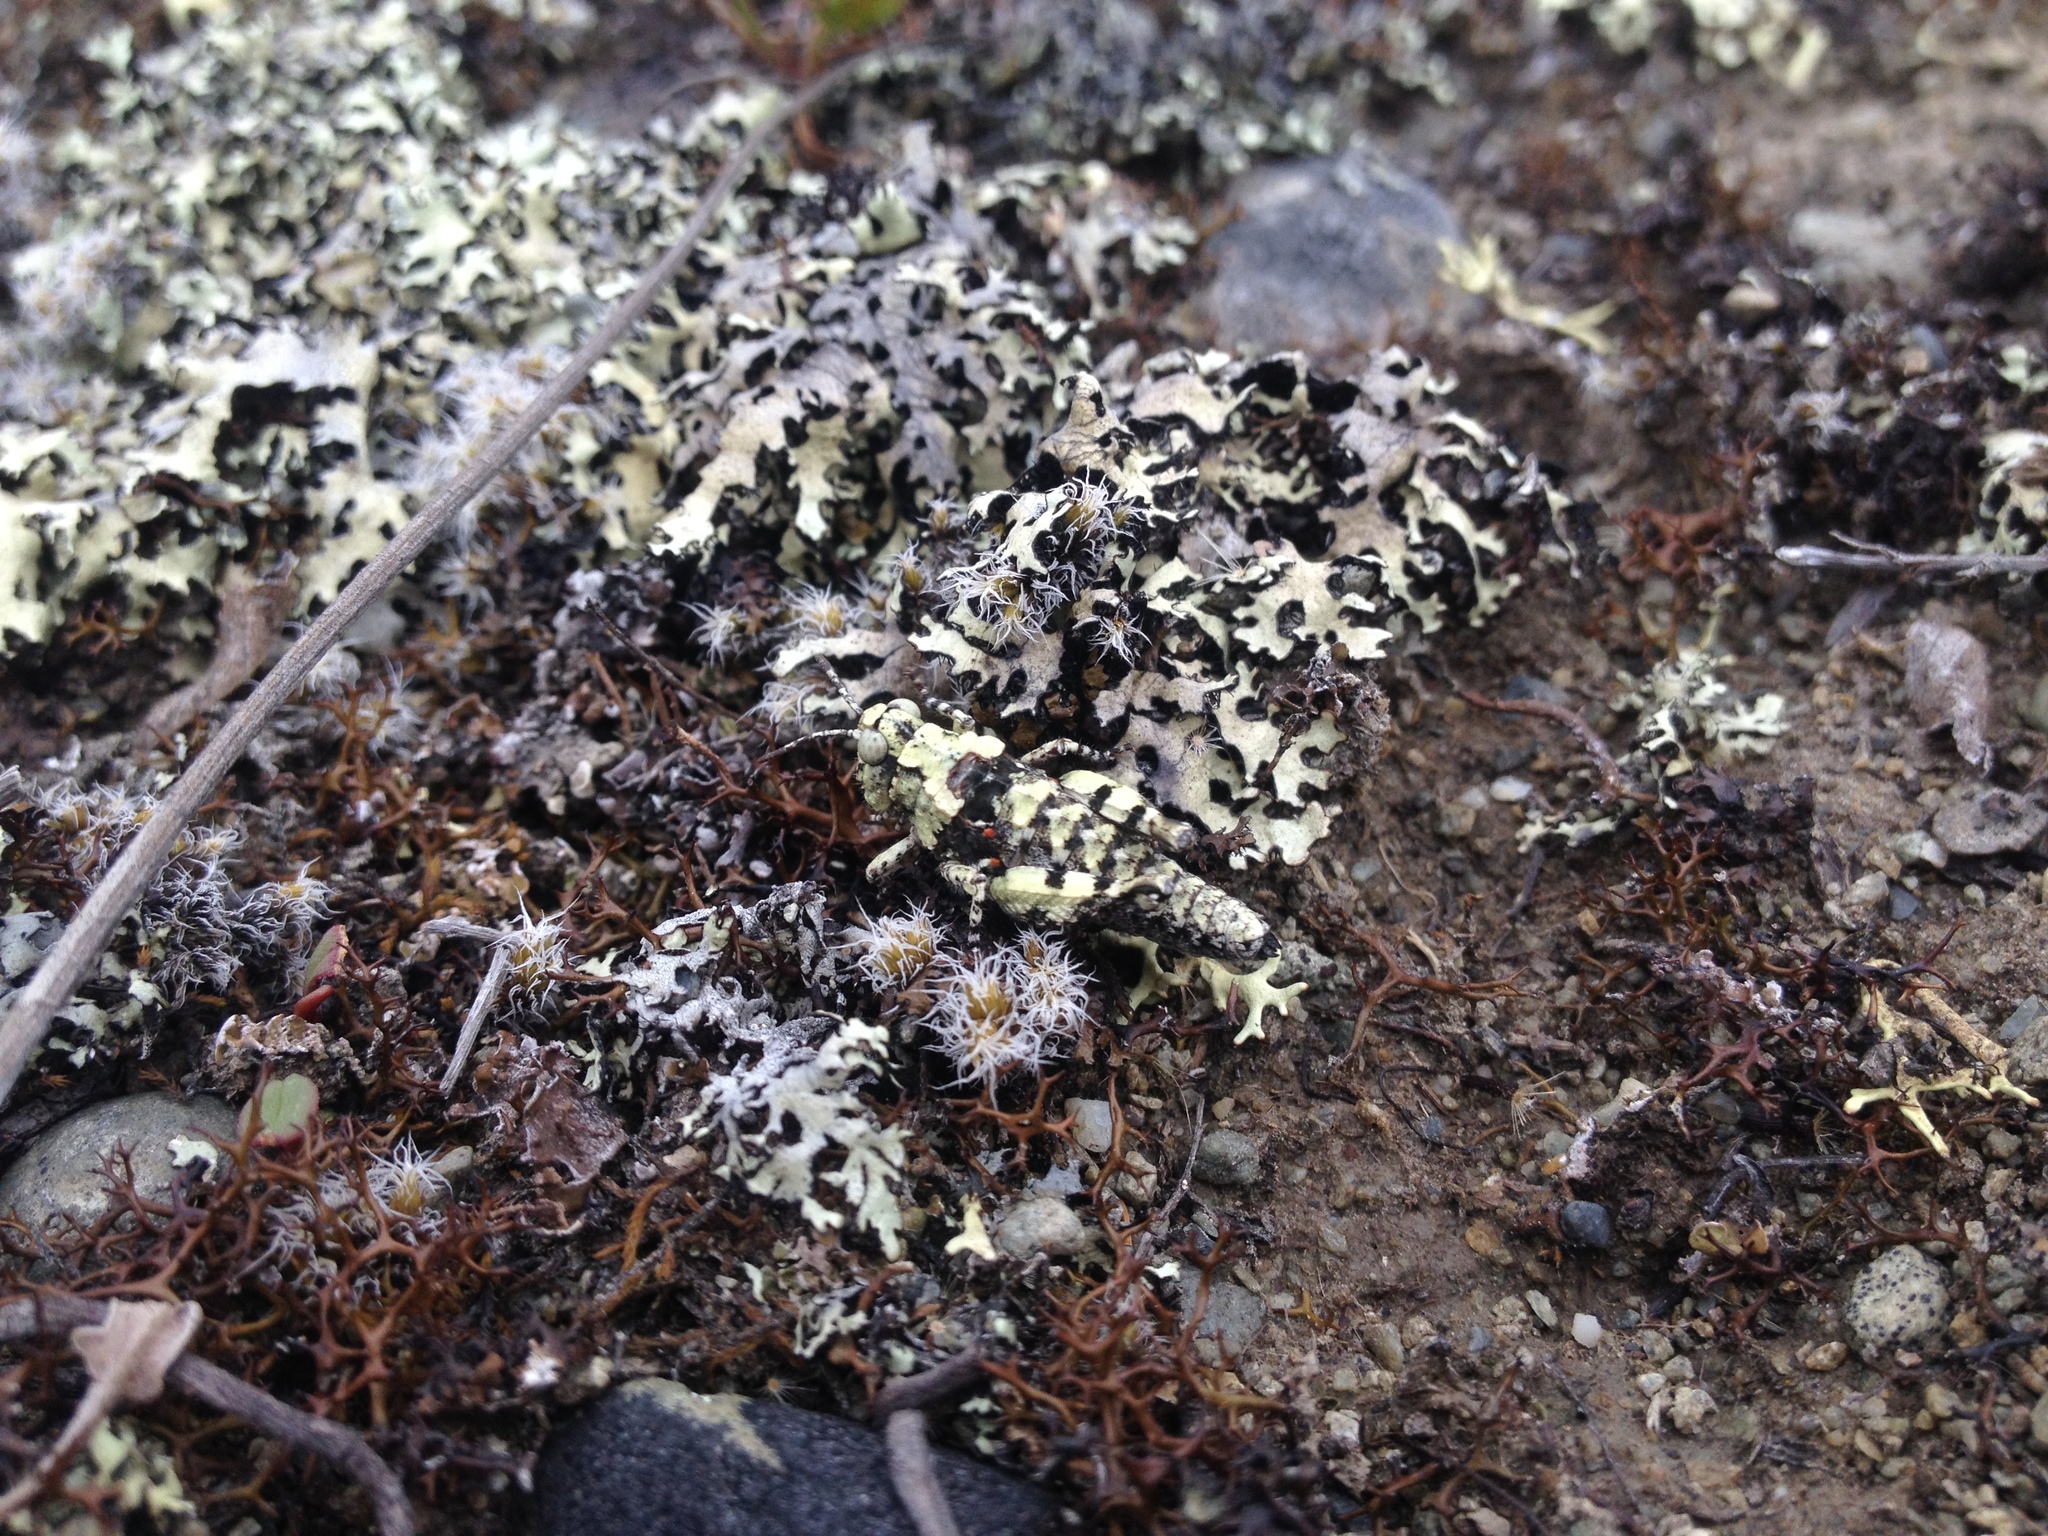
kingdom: Animalia
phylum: Arthropoda
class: Insecta
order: Orthoptera
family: Acrididae
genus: Sigaus
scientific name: Sigaus minutus
